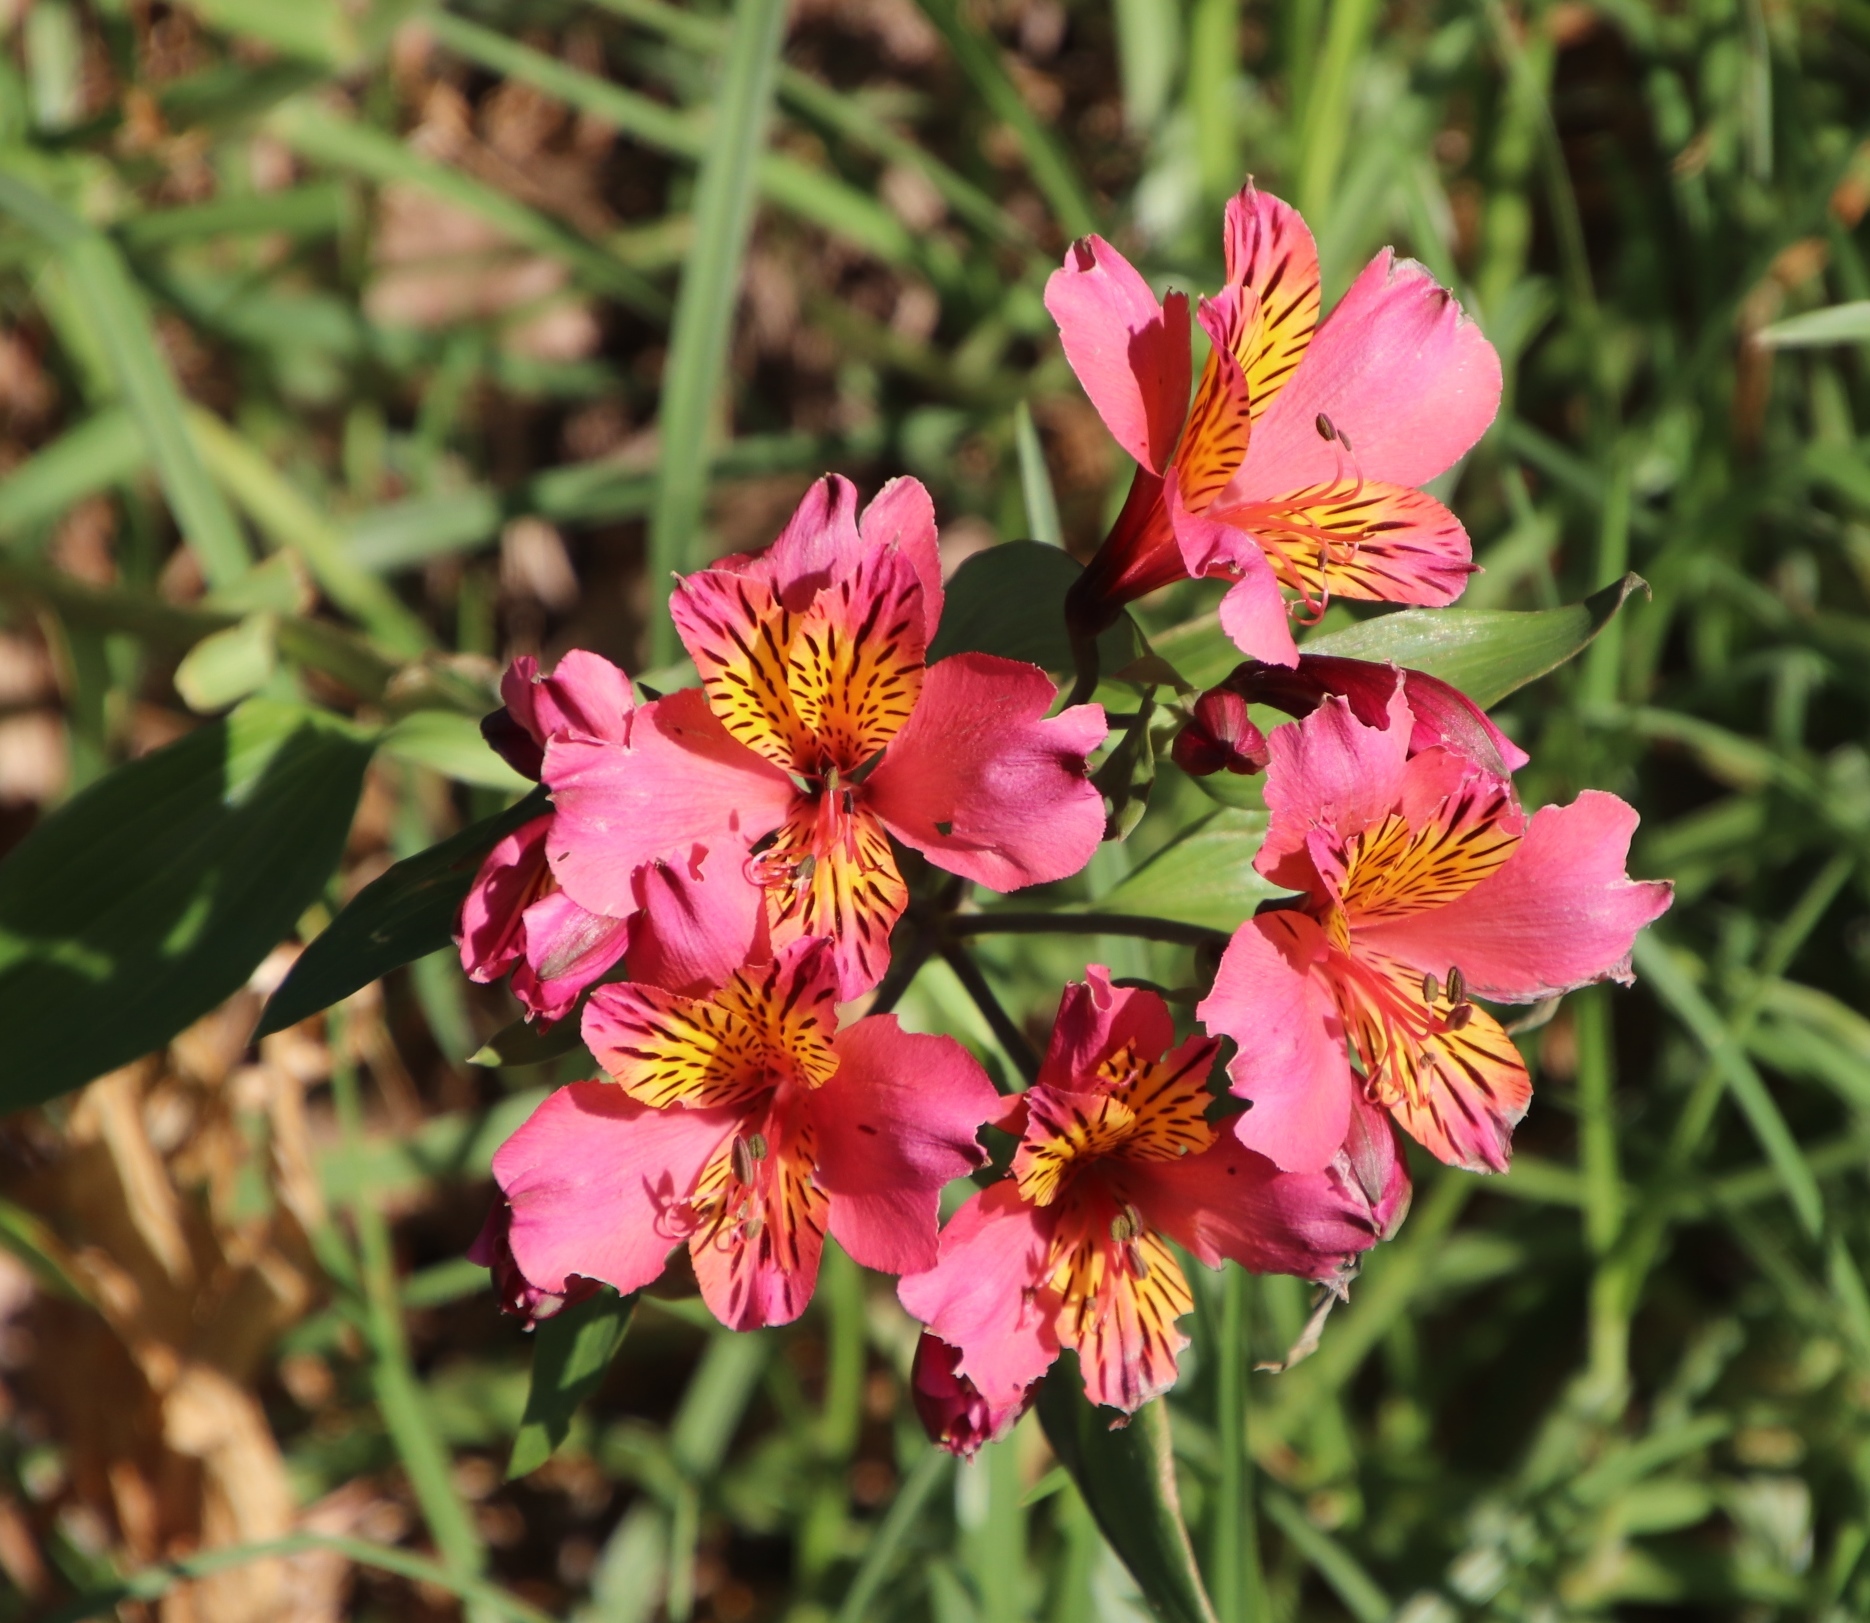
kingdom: Plantae
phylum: Tracheophyta
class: Liliopsida
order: Liliales
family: Alstroemeriaceae
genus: Alstroemeria
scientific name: Alstroemeria aurea
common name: Peruvian lily
